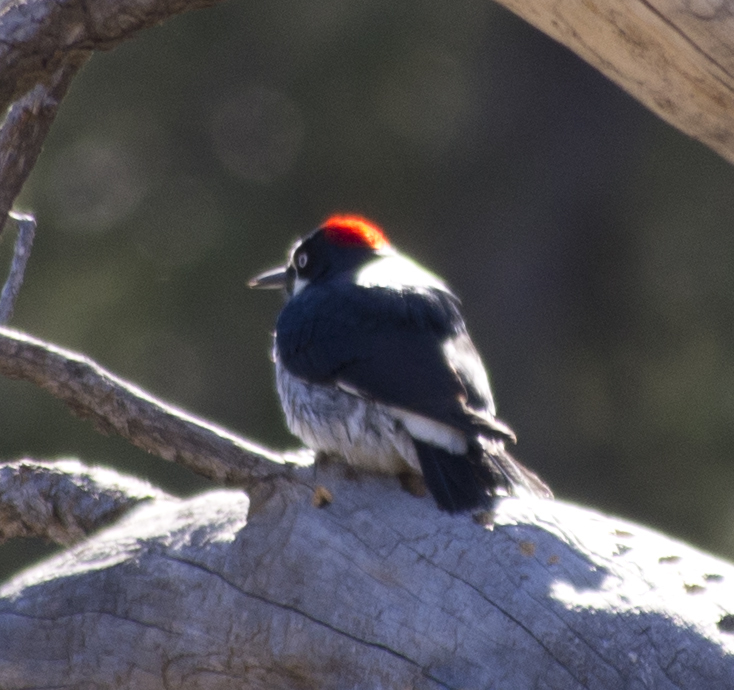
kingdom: Animalia
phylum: Chordata
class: Aves
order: Piciformes
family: Picidae
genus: Melanerpes
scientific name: Melanerpes formicivorus
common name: Acorn woodpecker
